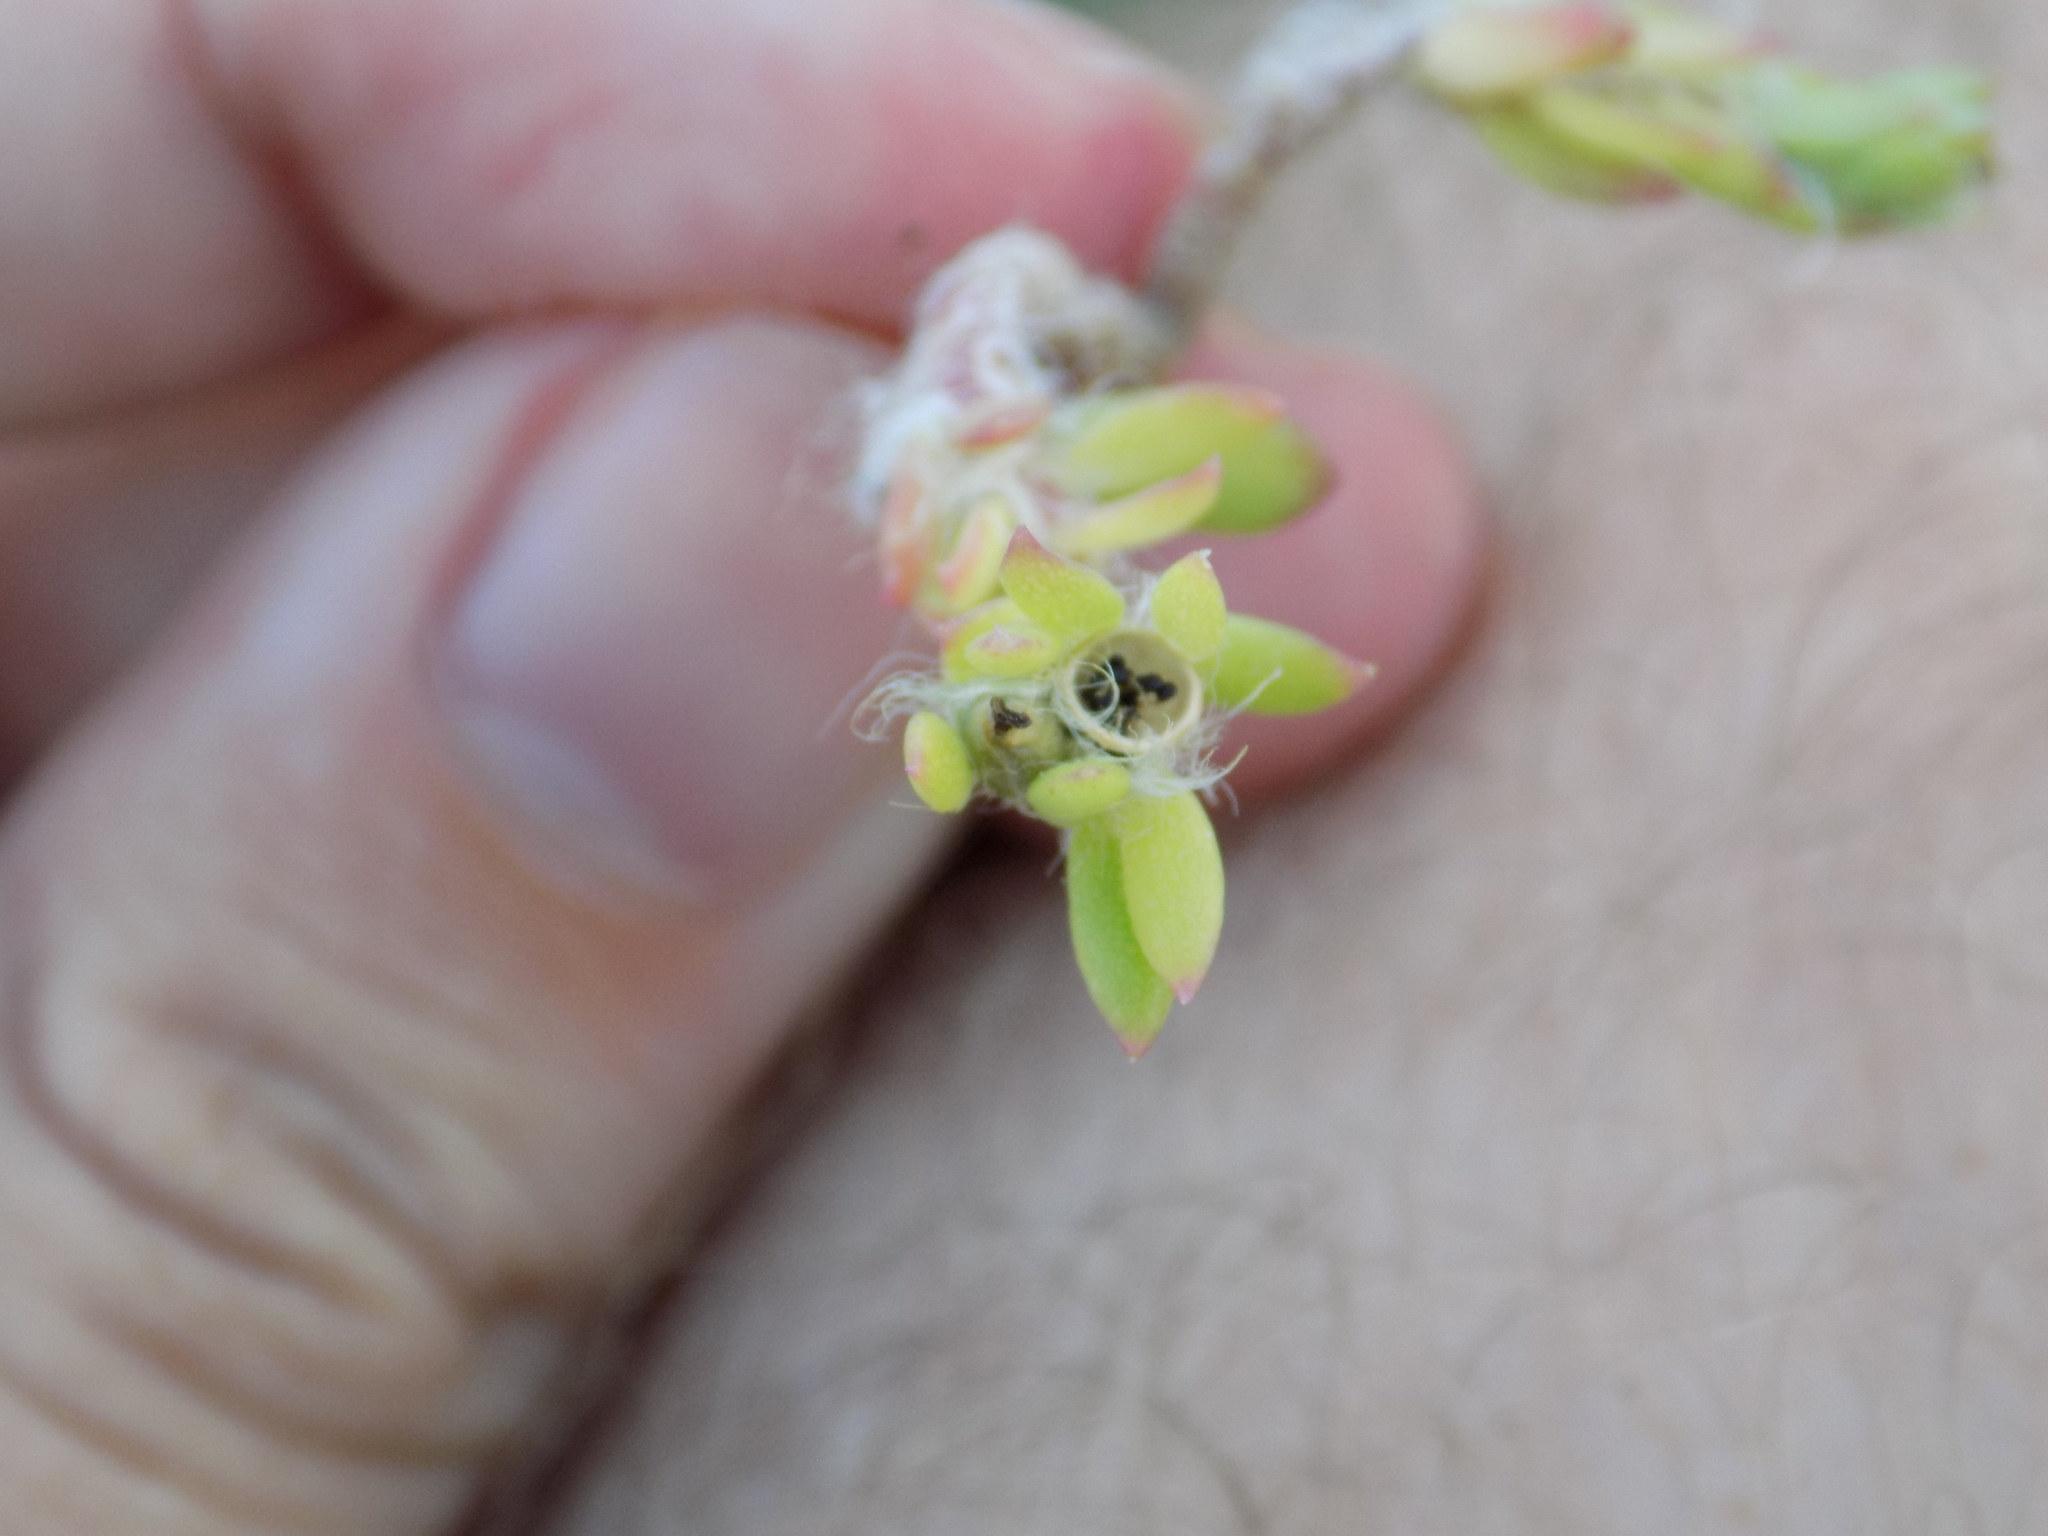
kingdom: Plantae
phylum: Tracheophyta
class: Magnoliopsida
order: Caryophyllales
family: Portulacaceae
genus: Portulaca
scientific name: Portulaca pilosa
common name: Kiss me quick
